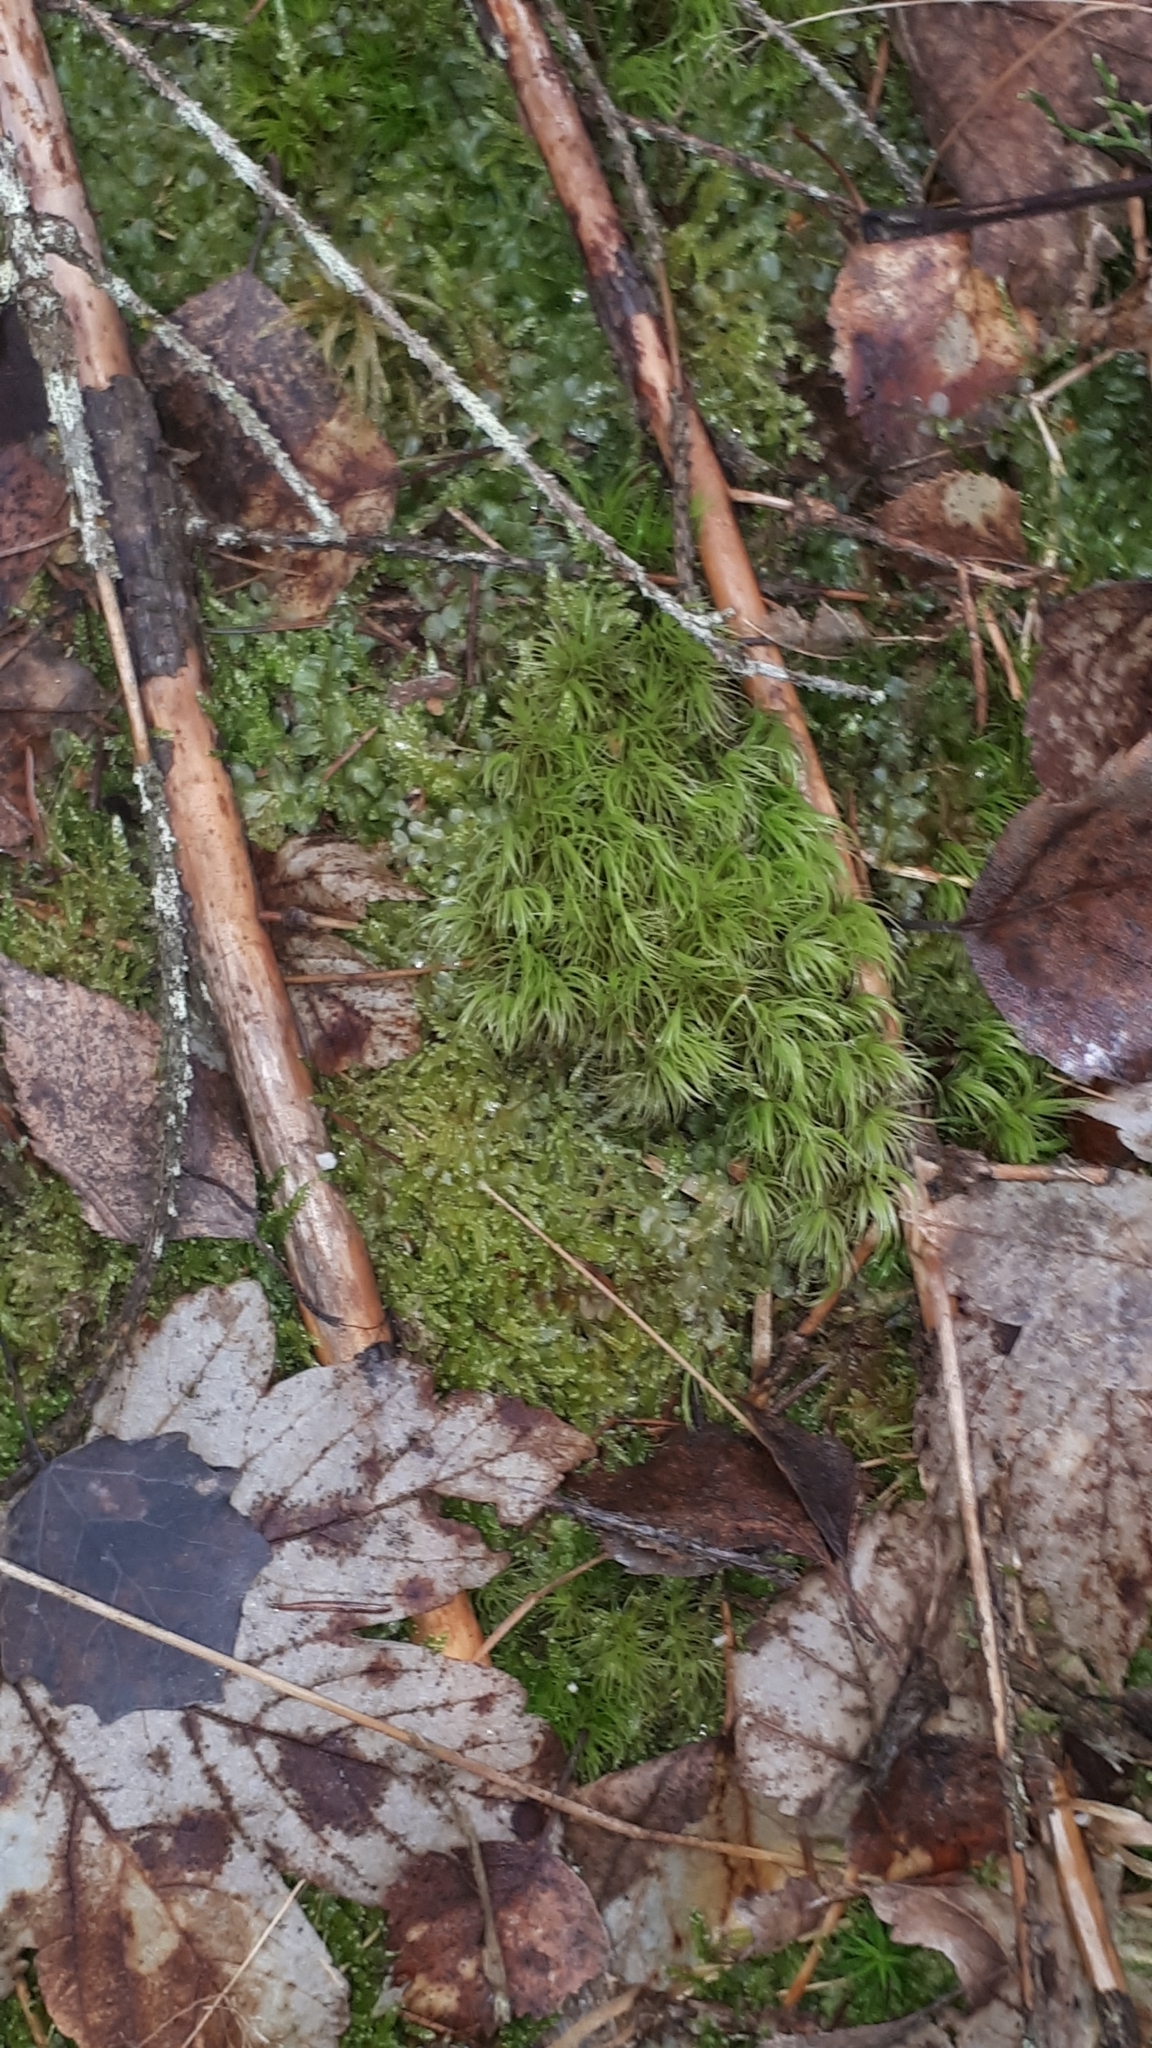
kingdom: Plantae
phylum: Bryophyta
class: Bryopsida
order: Dicranales
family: Dicranaceae
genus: Dicranum
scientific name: Dicranum scoparium
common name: Broom fork-moss
